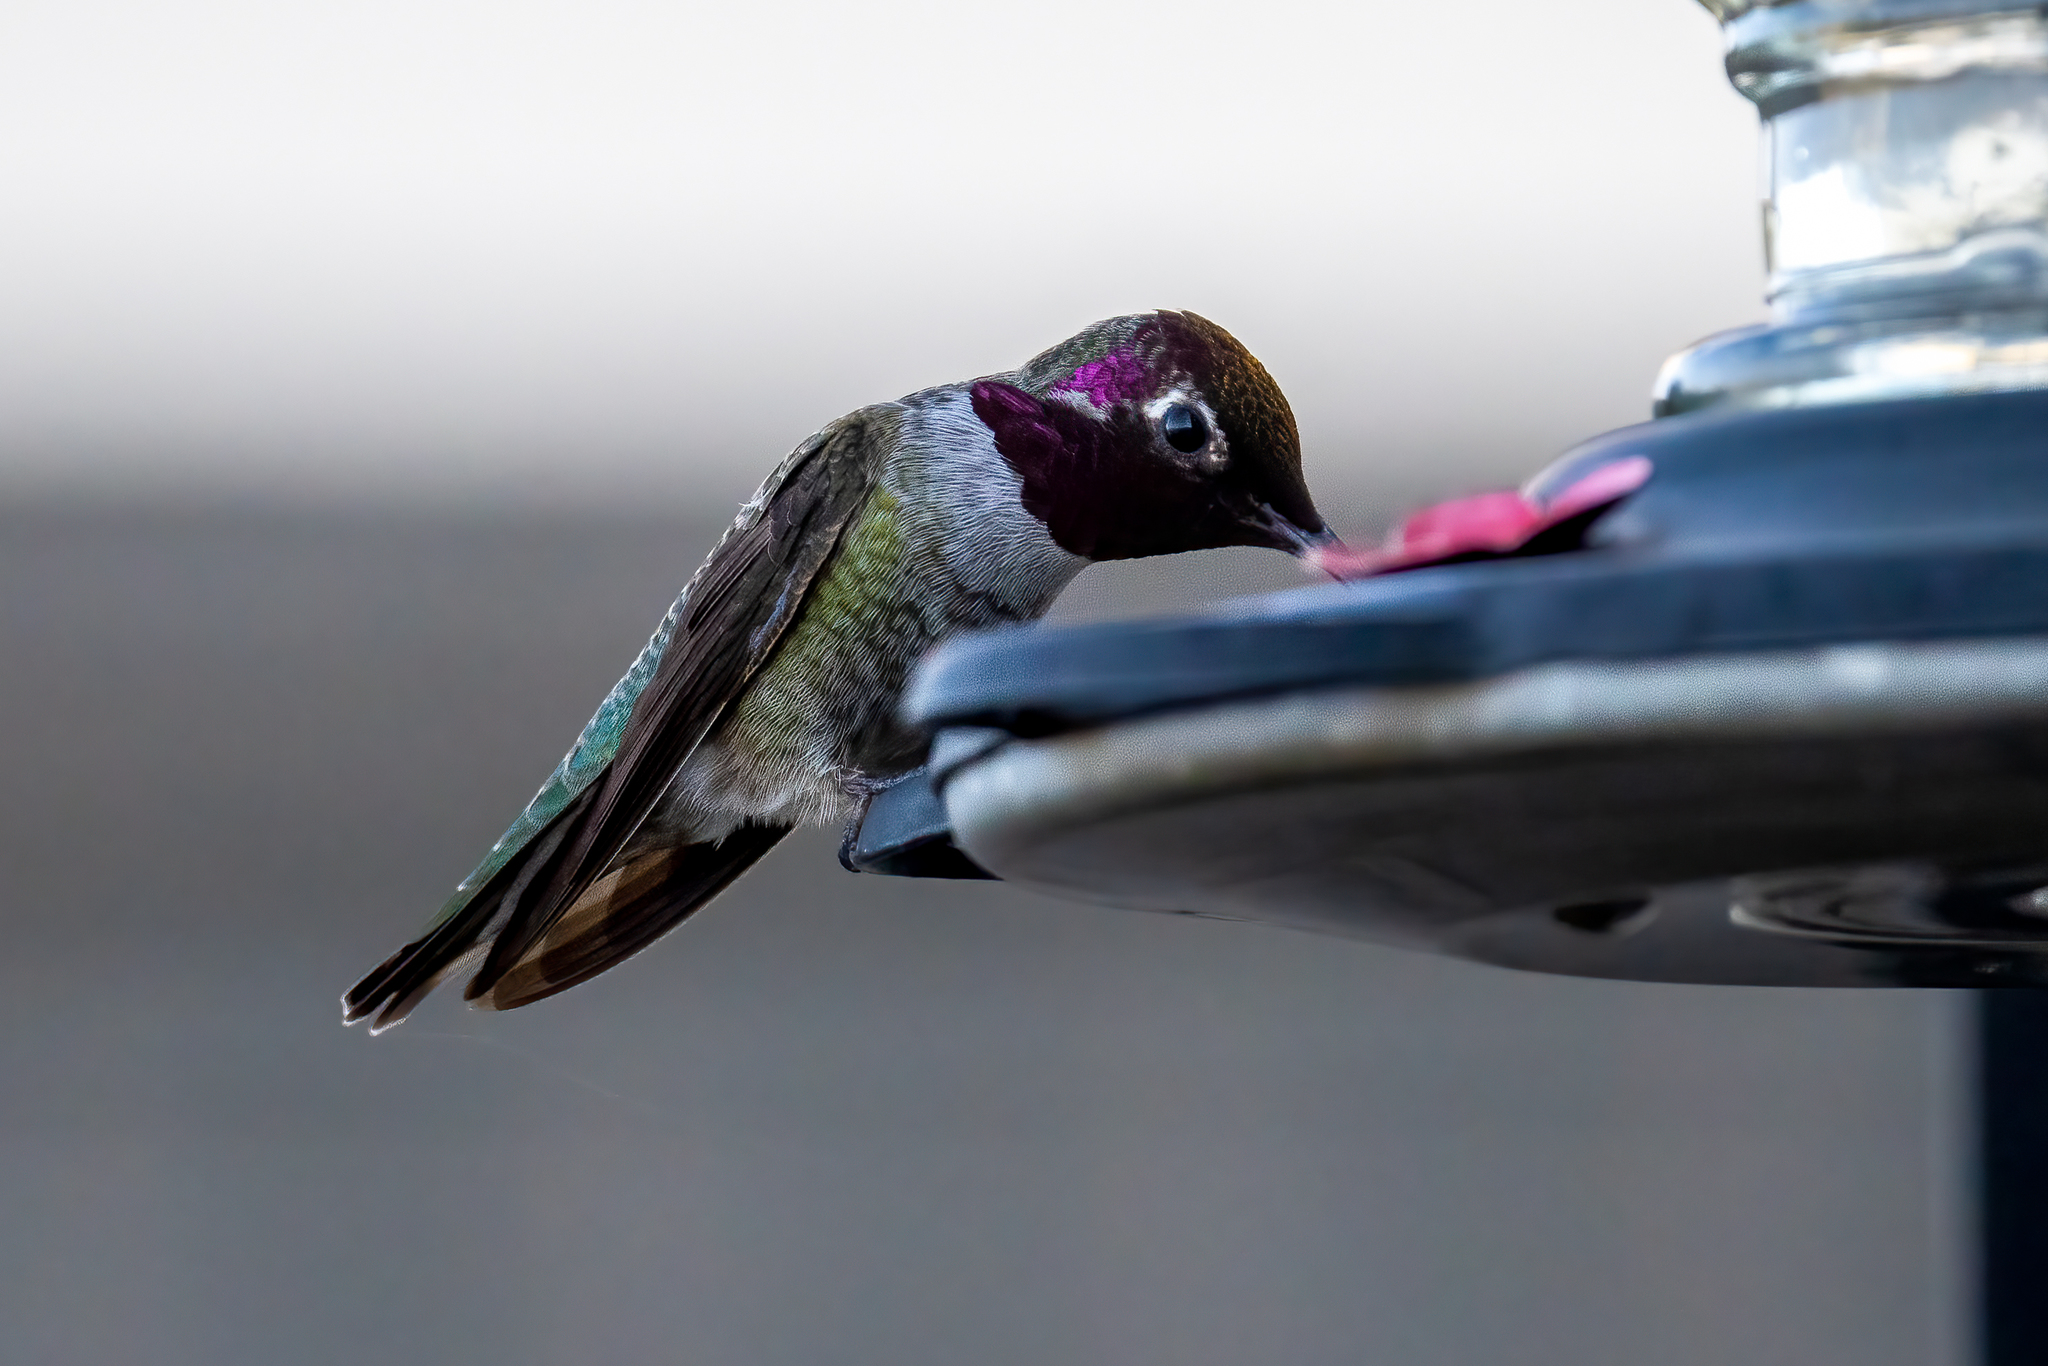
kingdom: Animalia
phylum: Chordata
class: Aves
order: Apodiformes
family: Trochilidae
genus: Calypte
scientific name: Calypte anna
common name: Anna's hummingbird
